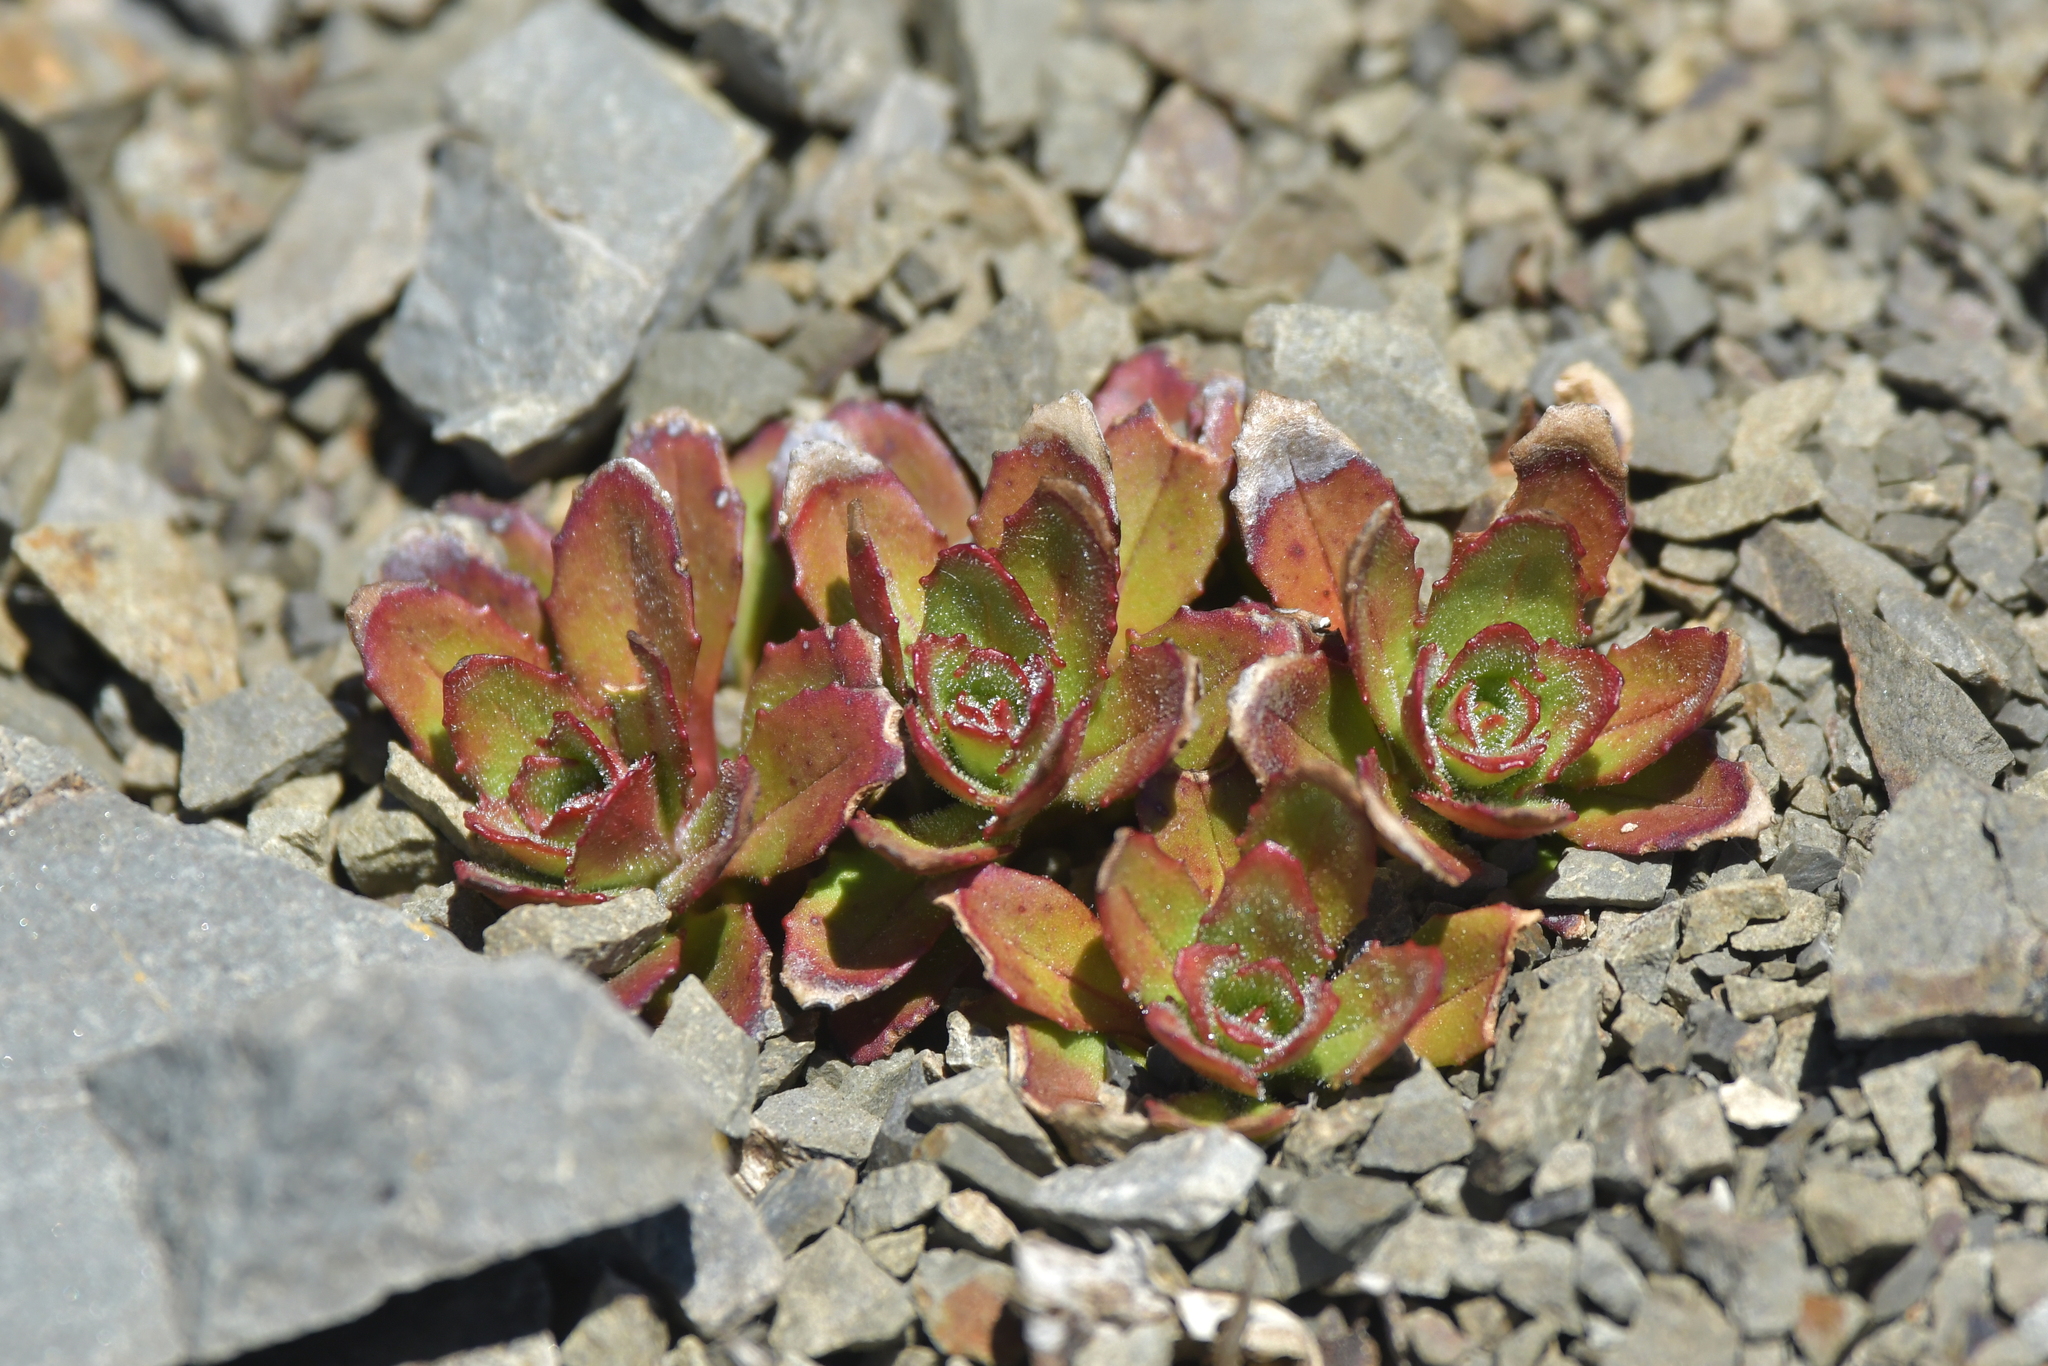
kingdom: Plantae
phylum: Tracheophyta
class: Magnoliopsida
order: Myrtales
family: Onagraceae
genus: Epilobium
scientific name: Epilobium forbesii
